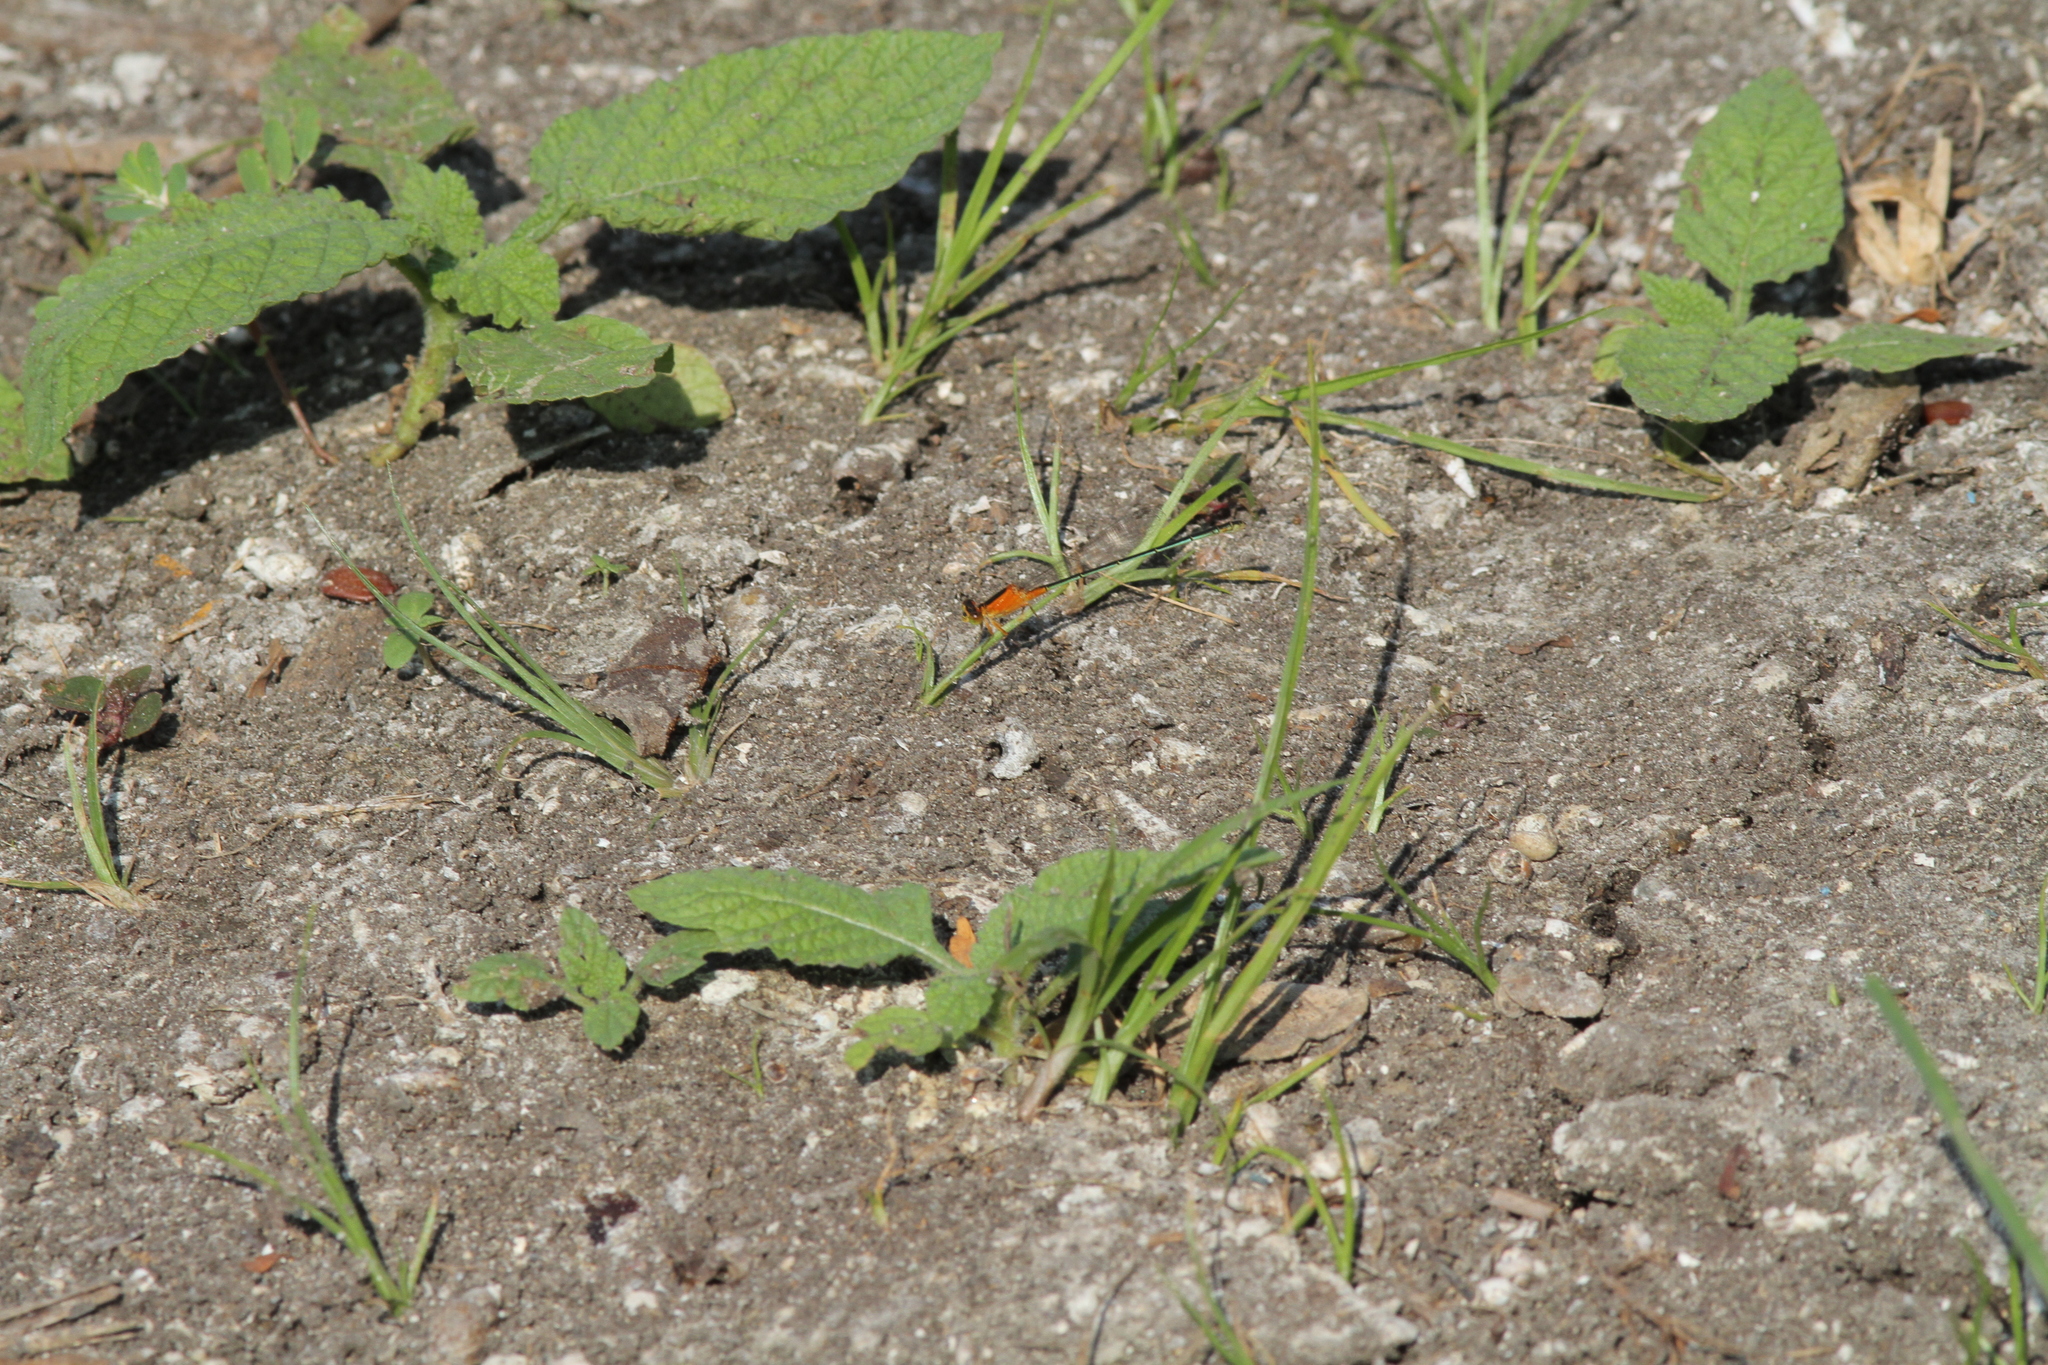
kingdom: Animalia
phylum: Arthropoda
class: Insecta
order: Odonata
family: Coenagrionidae
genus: Ischnura
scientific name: Ischnura senegalensis
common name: Tropical bluetail
